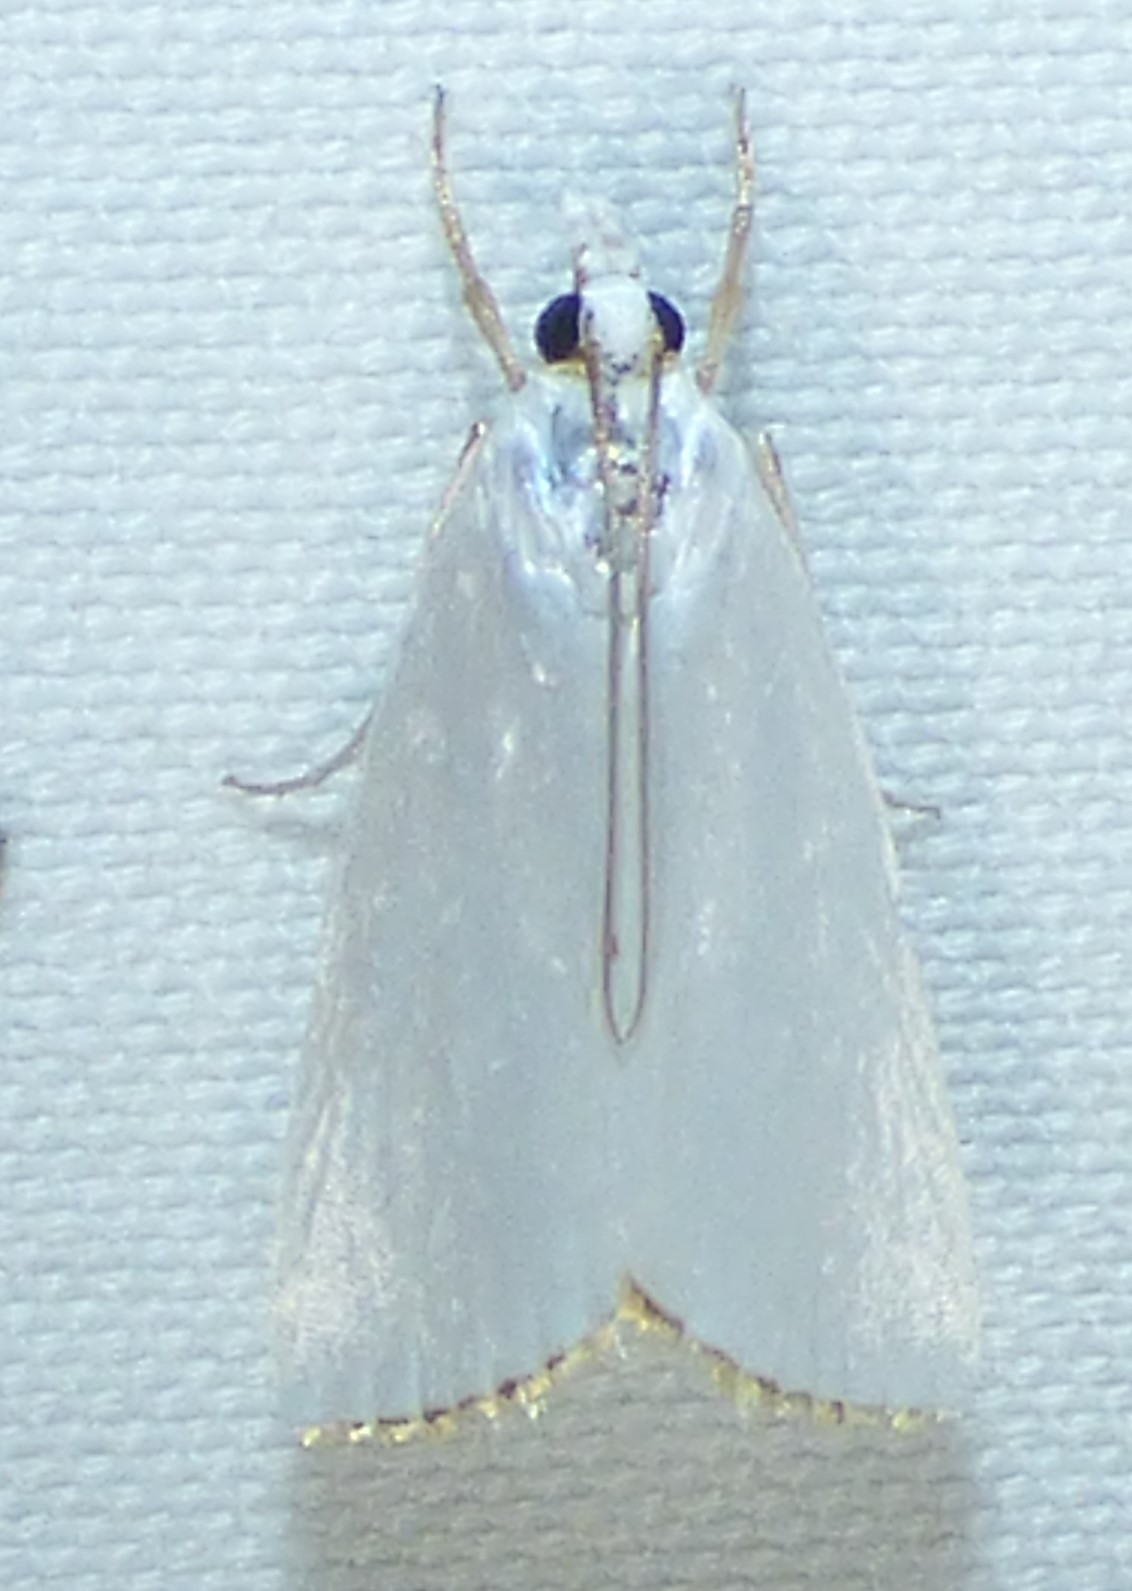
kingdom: Animalia
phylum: Arthropoda
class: Insecta
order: Lepidoptera
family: Crambidae
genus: Argyria
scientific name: Argyria nivalis
